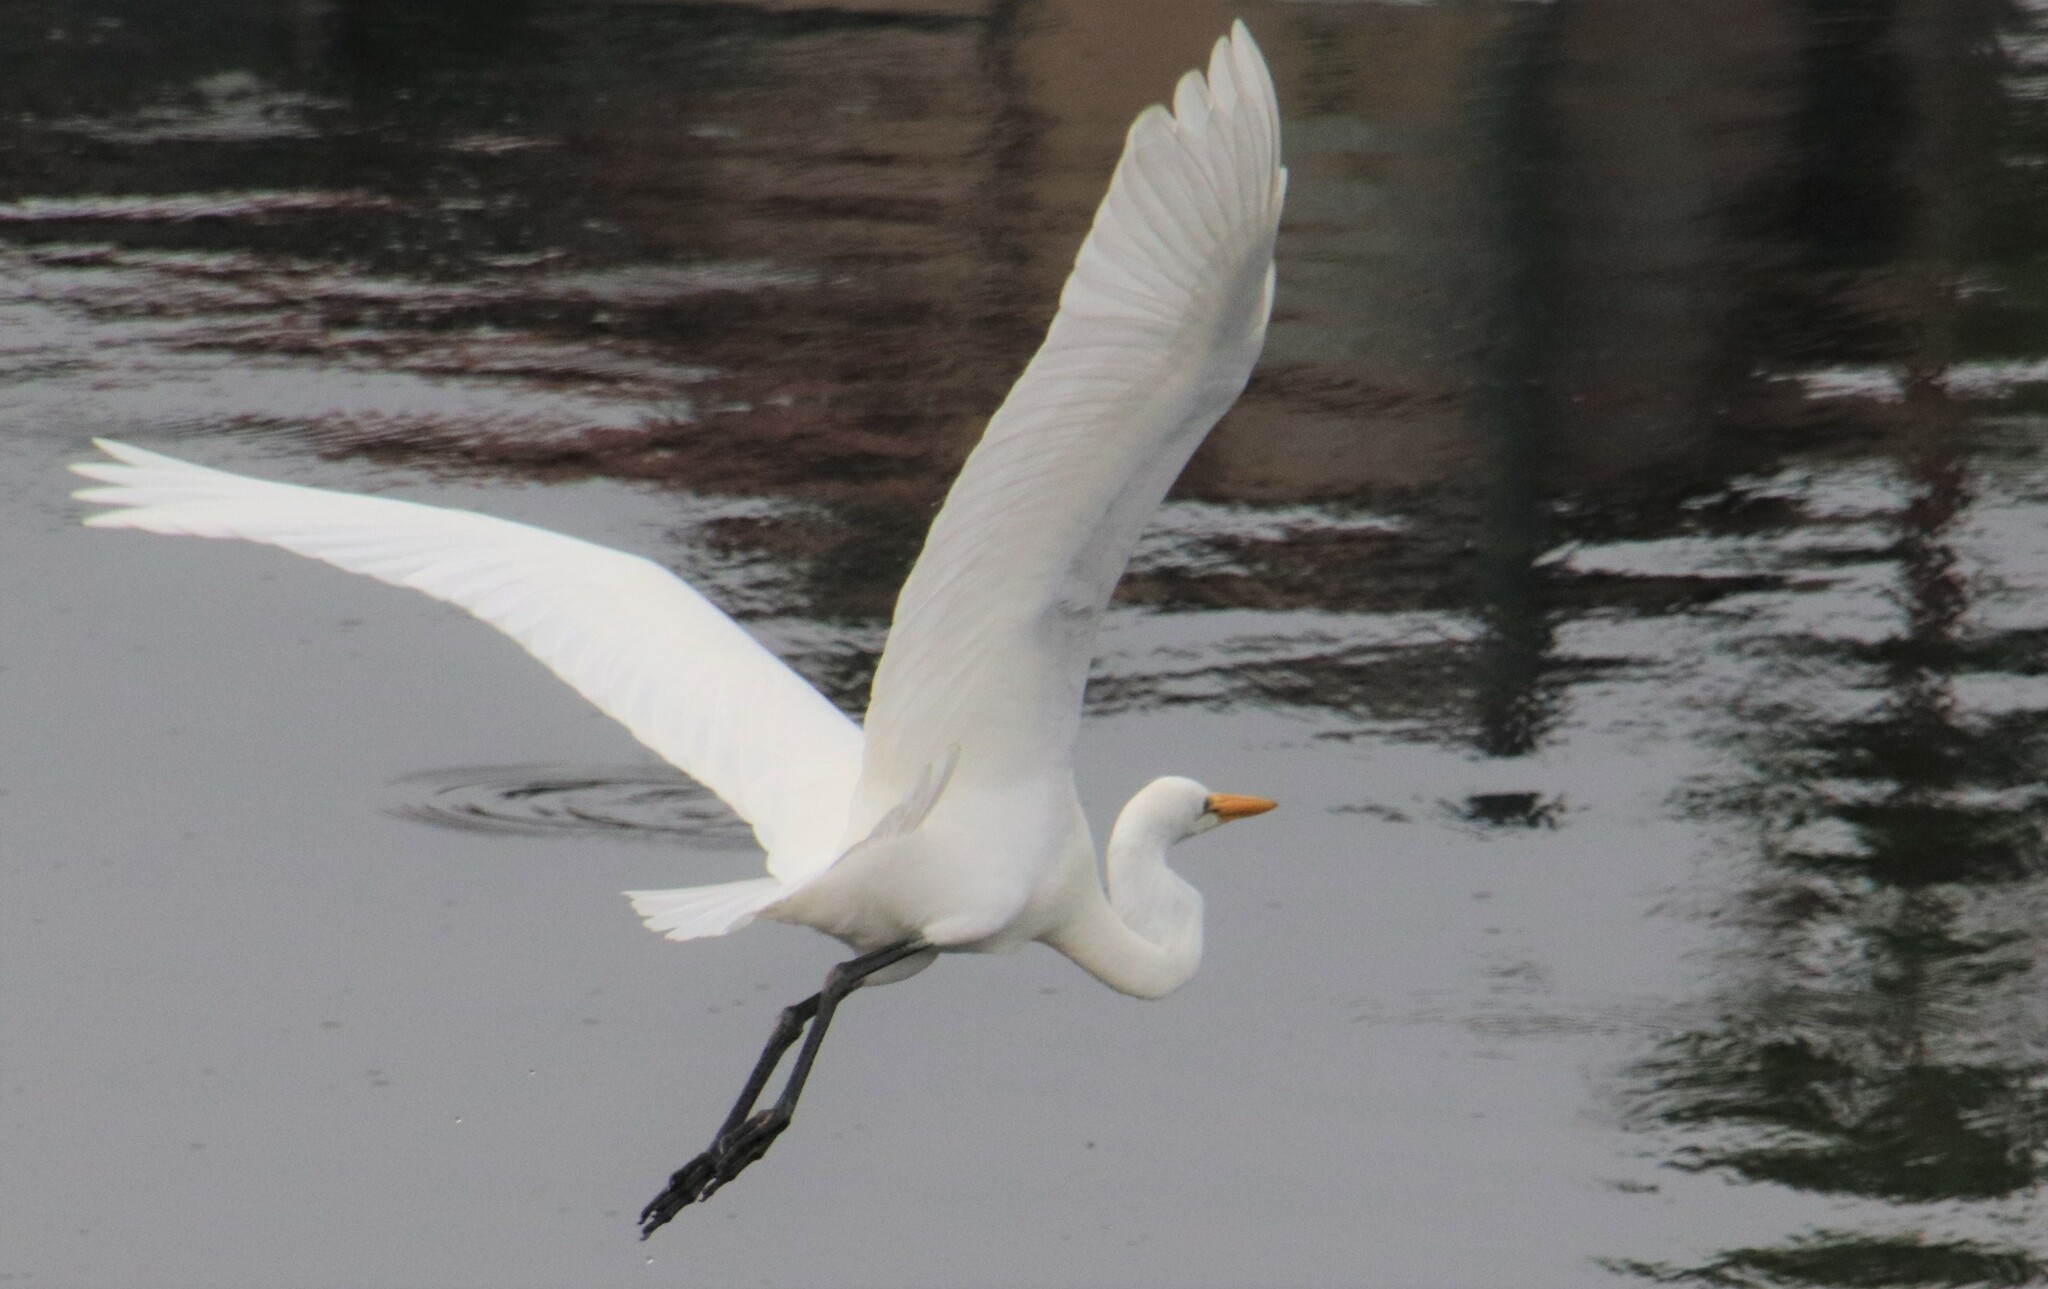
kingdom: Animalia
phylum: Chordata
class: Aves
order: Pelecaniformes
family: Ardeidae
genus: Ardea
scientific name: Ardea alba
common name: Great egret
